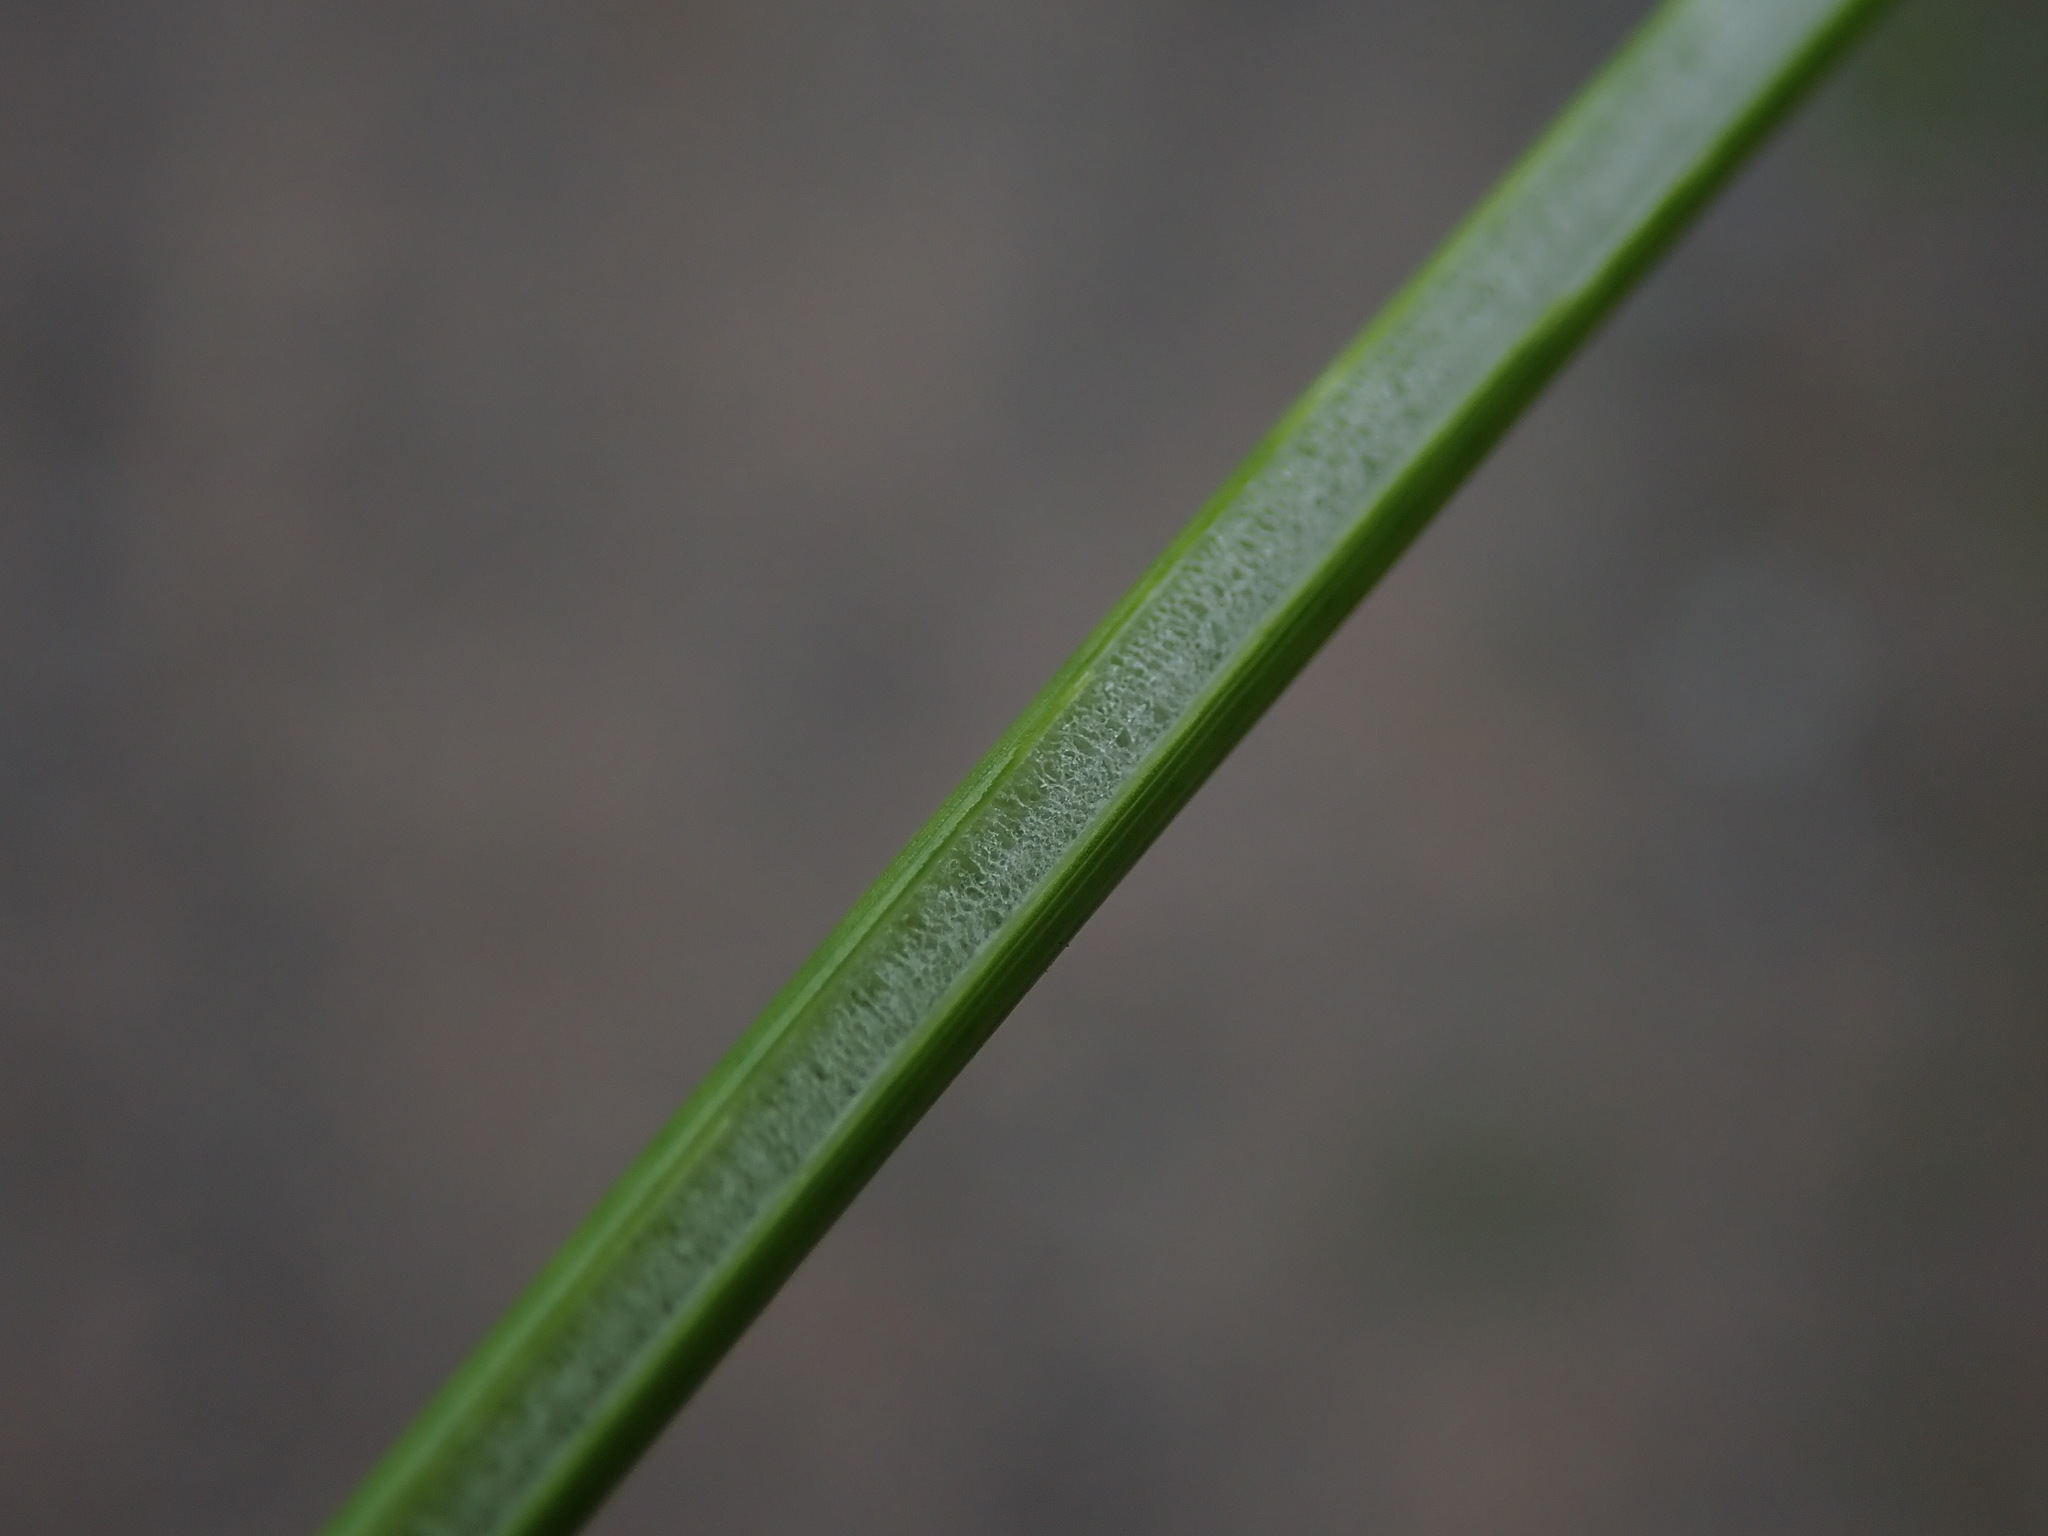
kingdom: Plantae
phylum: Tracheophyta
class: Liliopsida
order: Poales
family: Juncaceae
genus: Juncus
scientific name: Juncus effusus
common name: Soft rush
